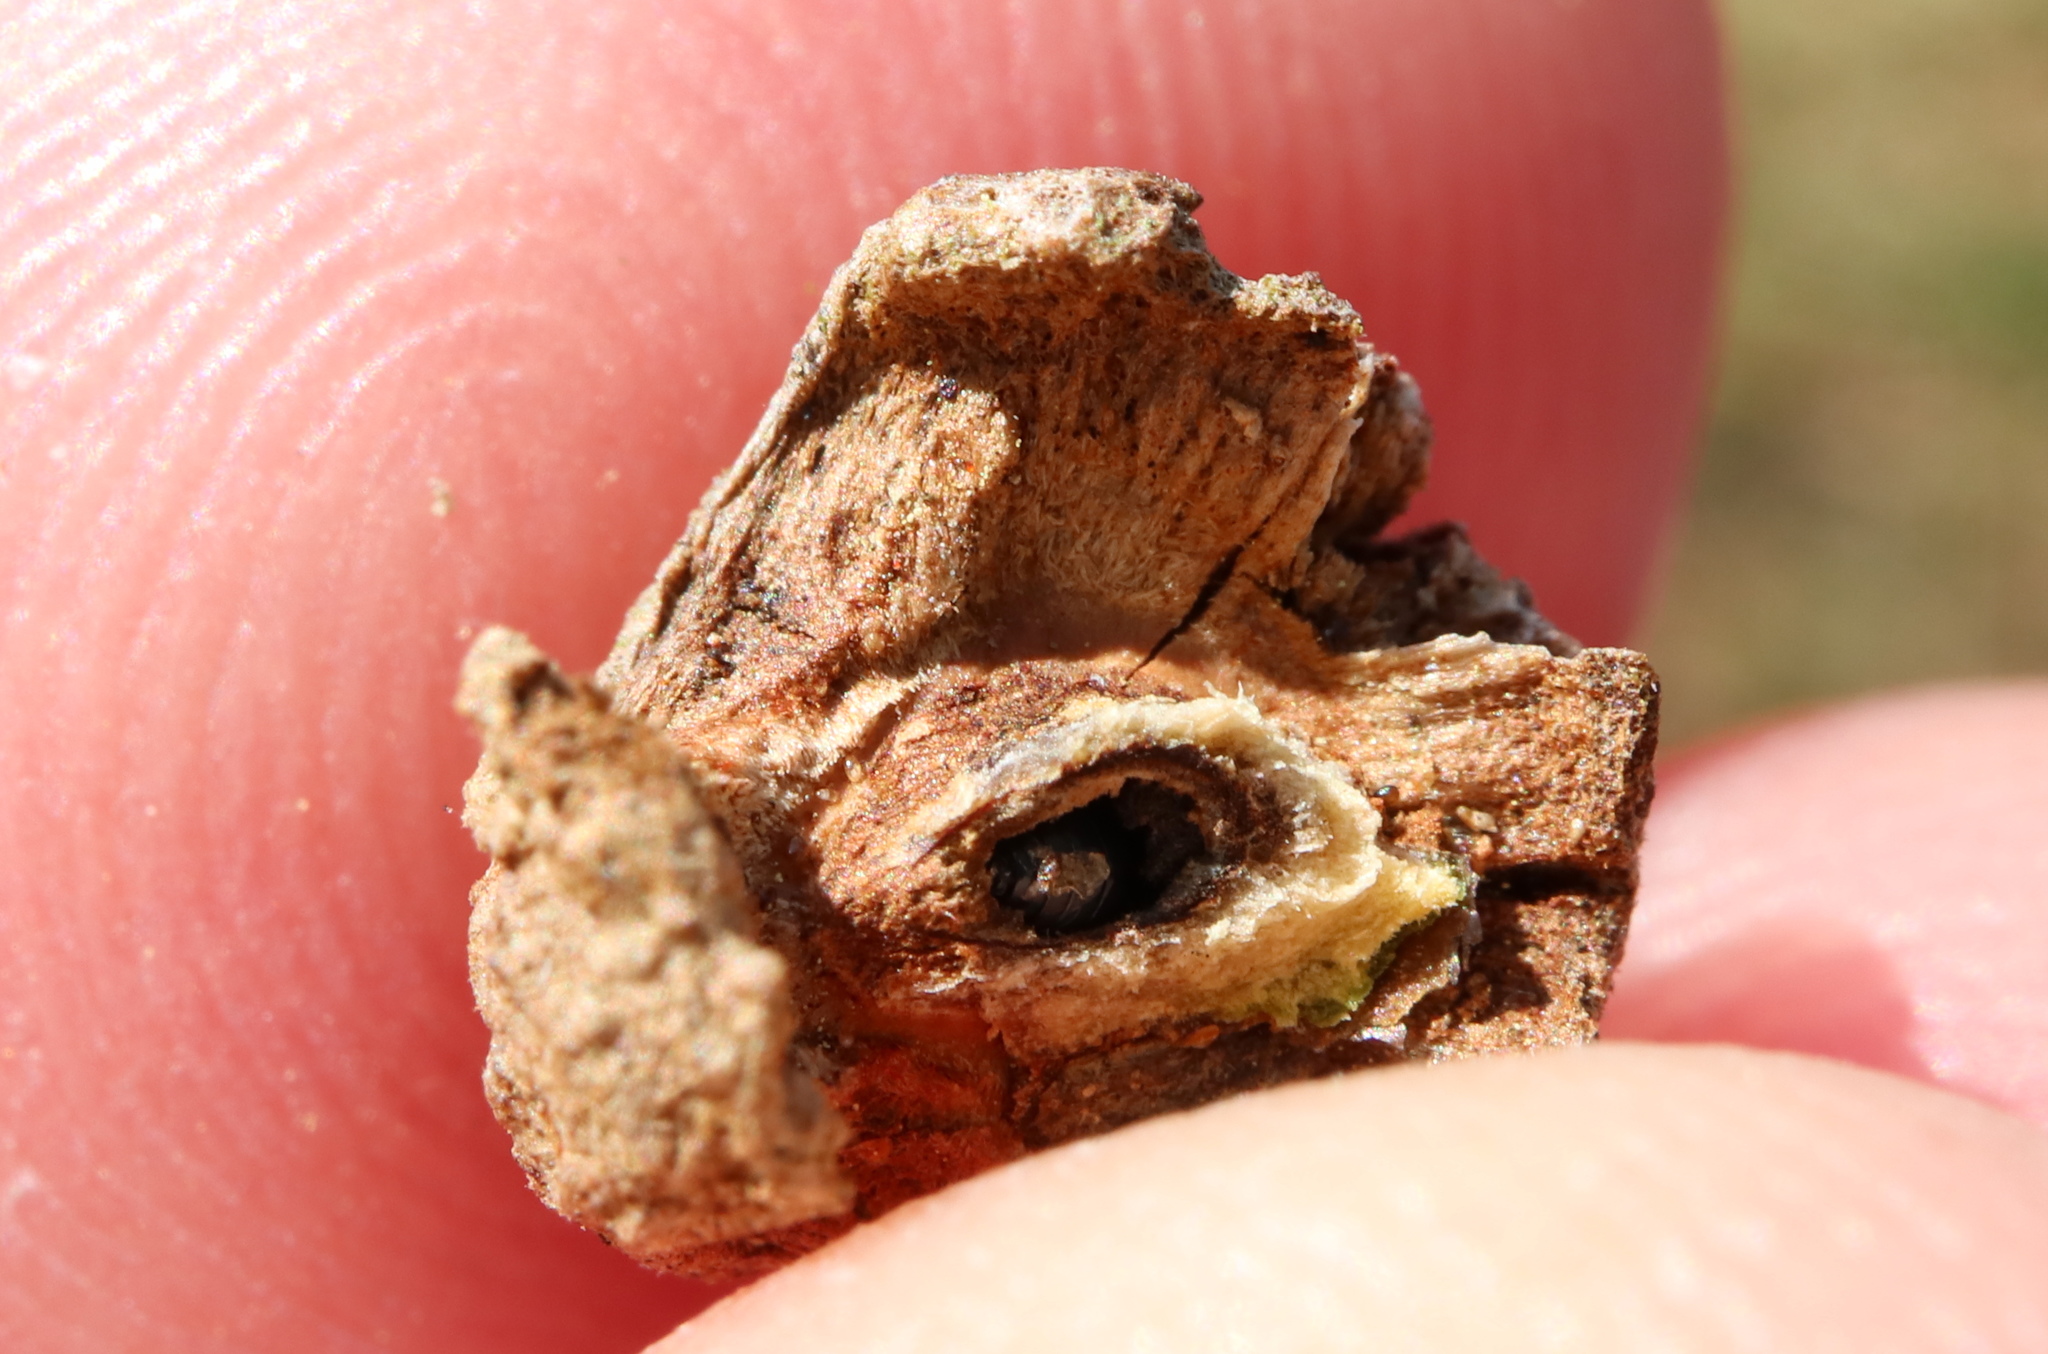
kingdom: Animalia
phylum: Arthropoda
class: Insecta
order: Hymenoptera
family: Cynipidae
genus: Callirhytis
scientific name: Callirhytis
